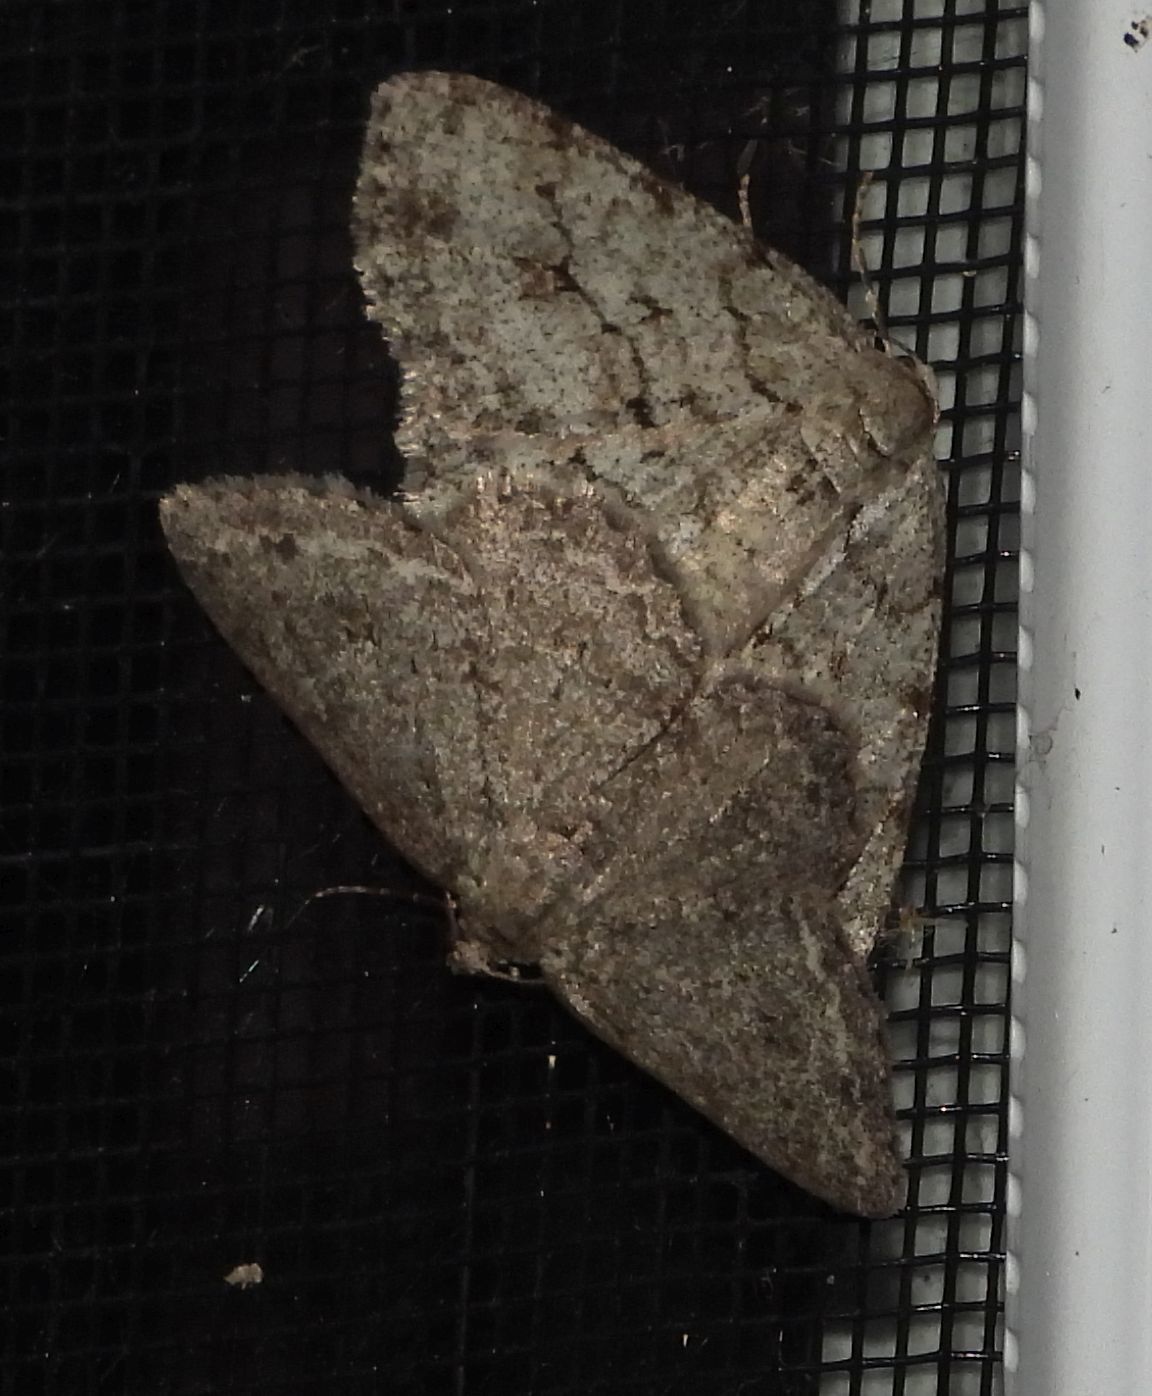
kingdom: Animalia
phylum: Arthropoda
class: Insecta
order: Lepidoptera
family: Geometridae
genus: Ectropis
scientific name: Ectropis crepuscularia
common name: Engrailed
